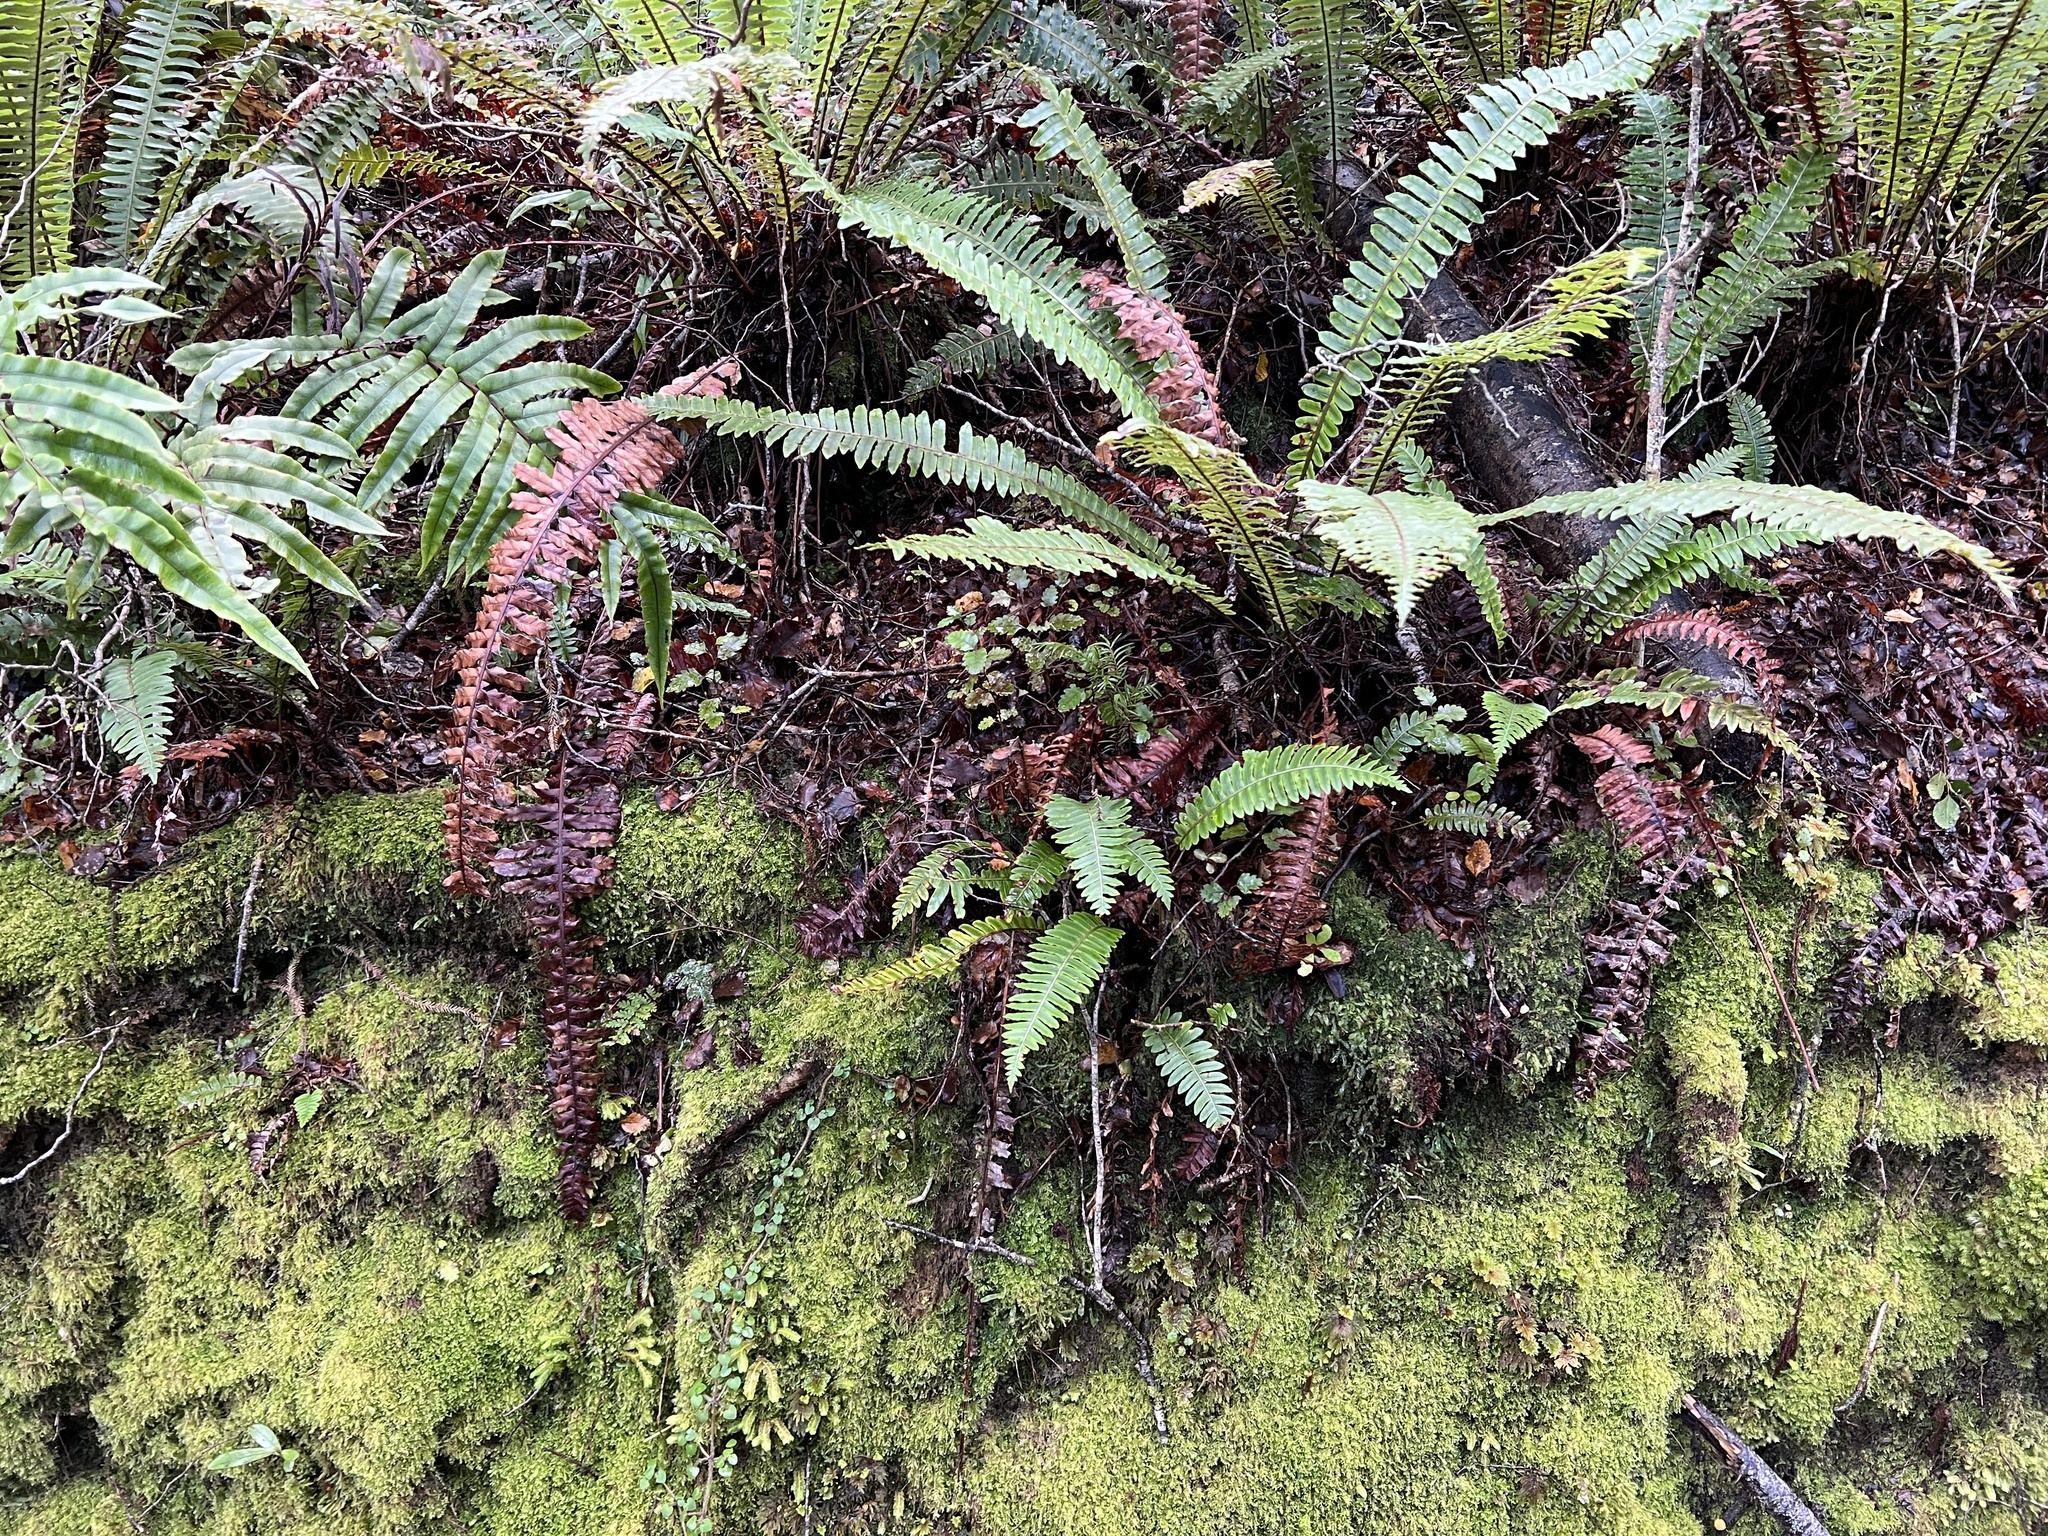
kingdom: Plantae
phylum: Tracheophyta
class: Polypodiopsida
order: Polypodiales
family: Blechnaceae
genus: Lomaria
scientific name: Lomaria discolor
